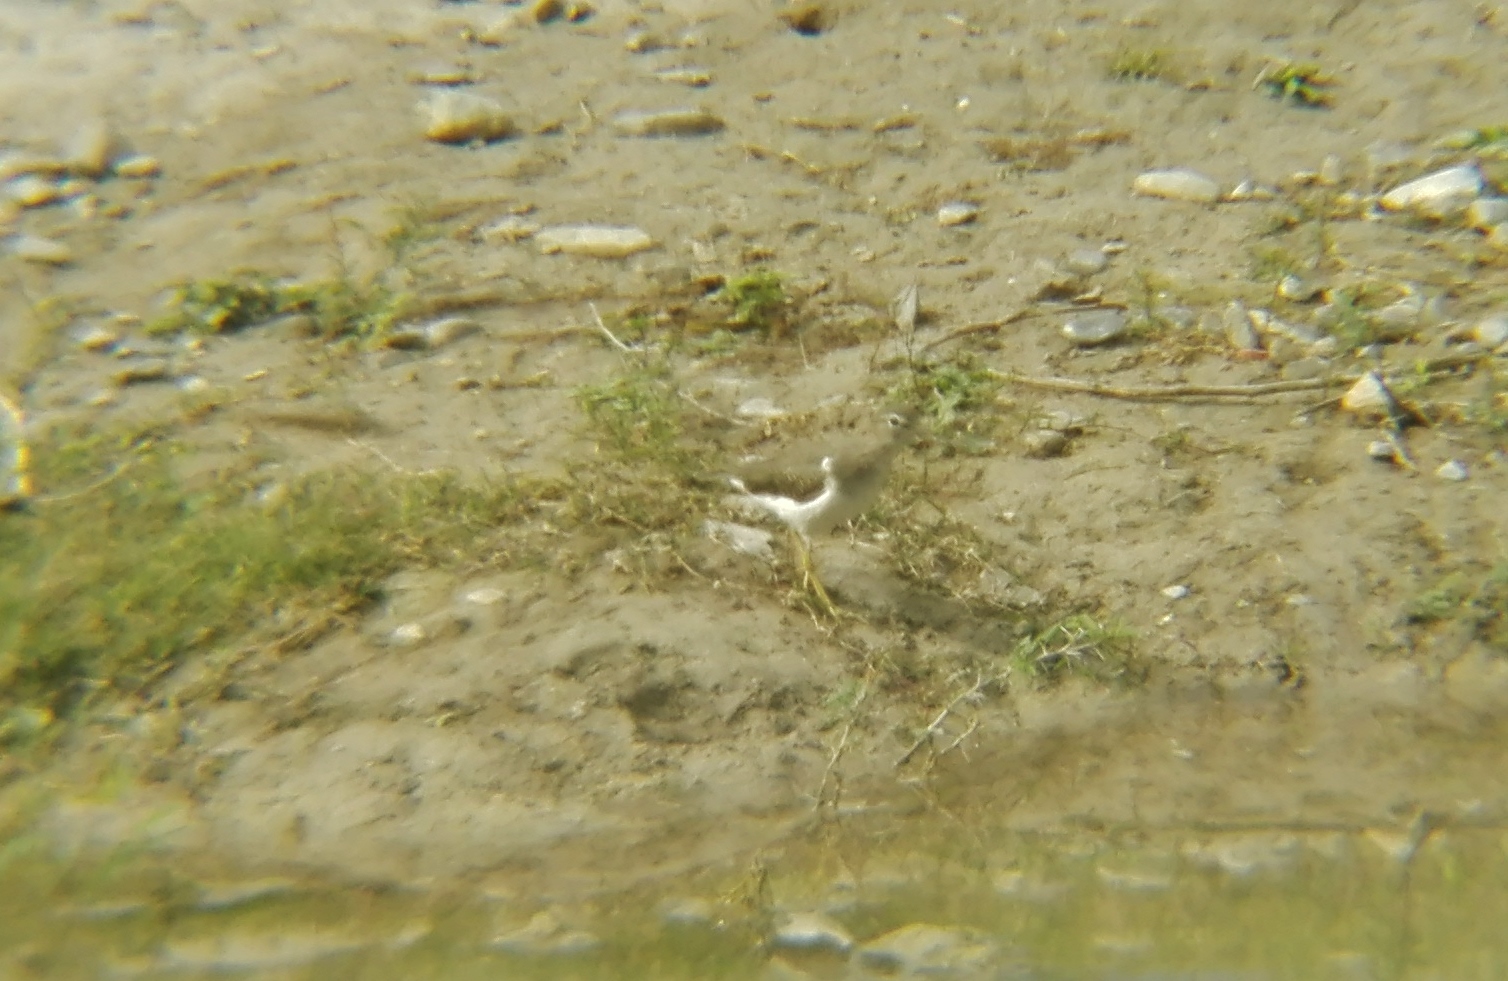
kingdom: Animalia
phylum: Chordata
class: Aves
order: Charadriiformes
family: Scolopacidae
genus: Actitis
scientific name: Actitis macularius
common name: Spotted sandpiper
